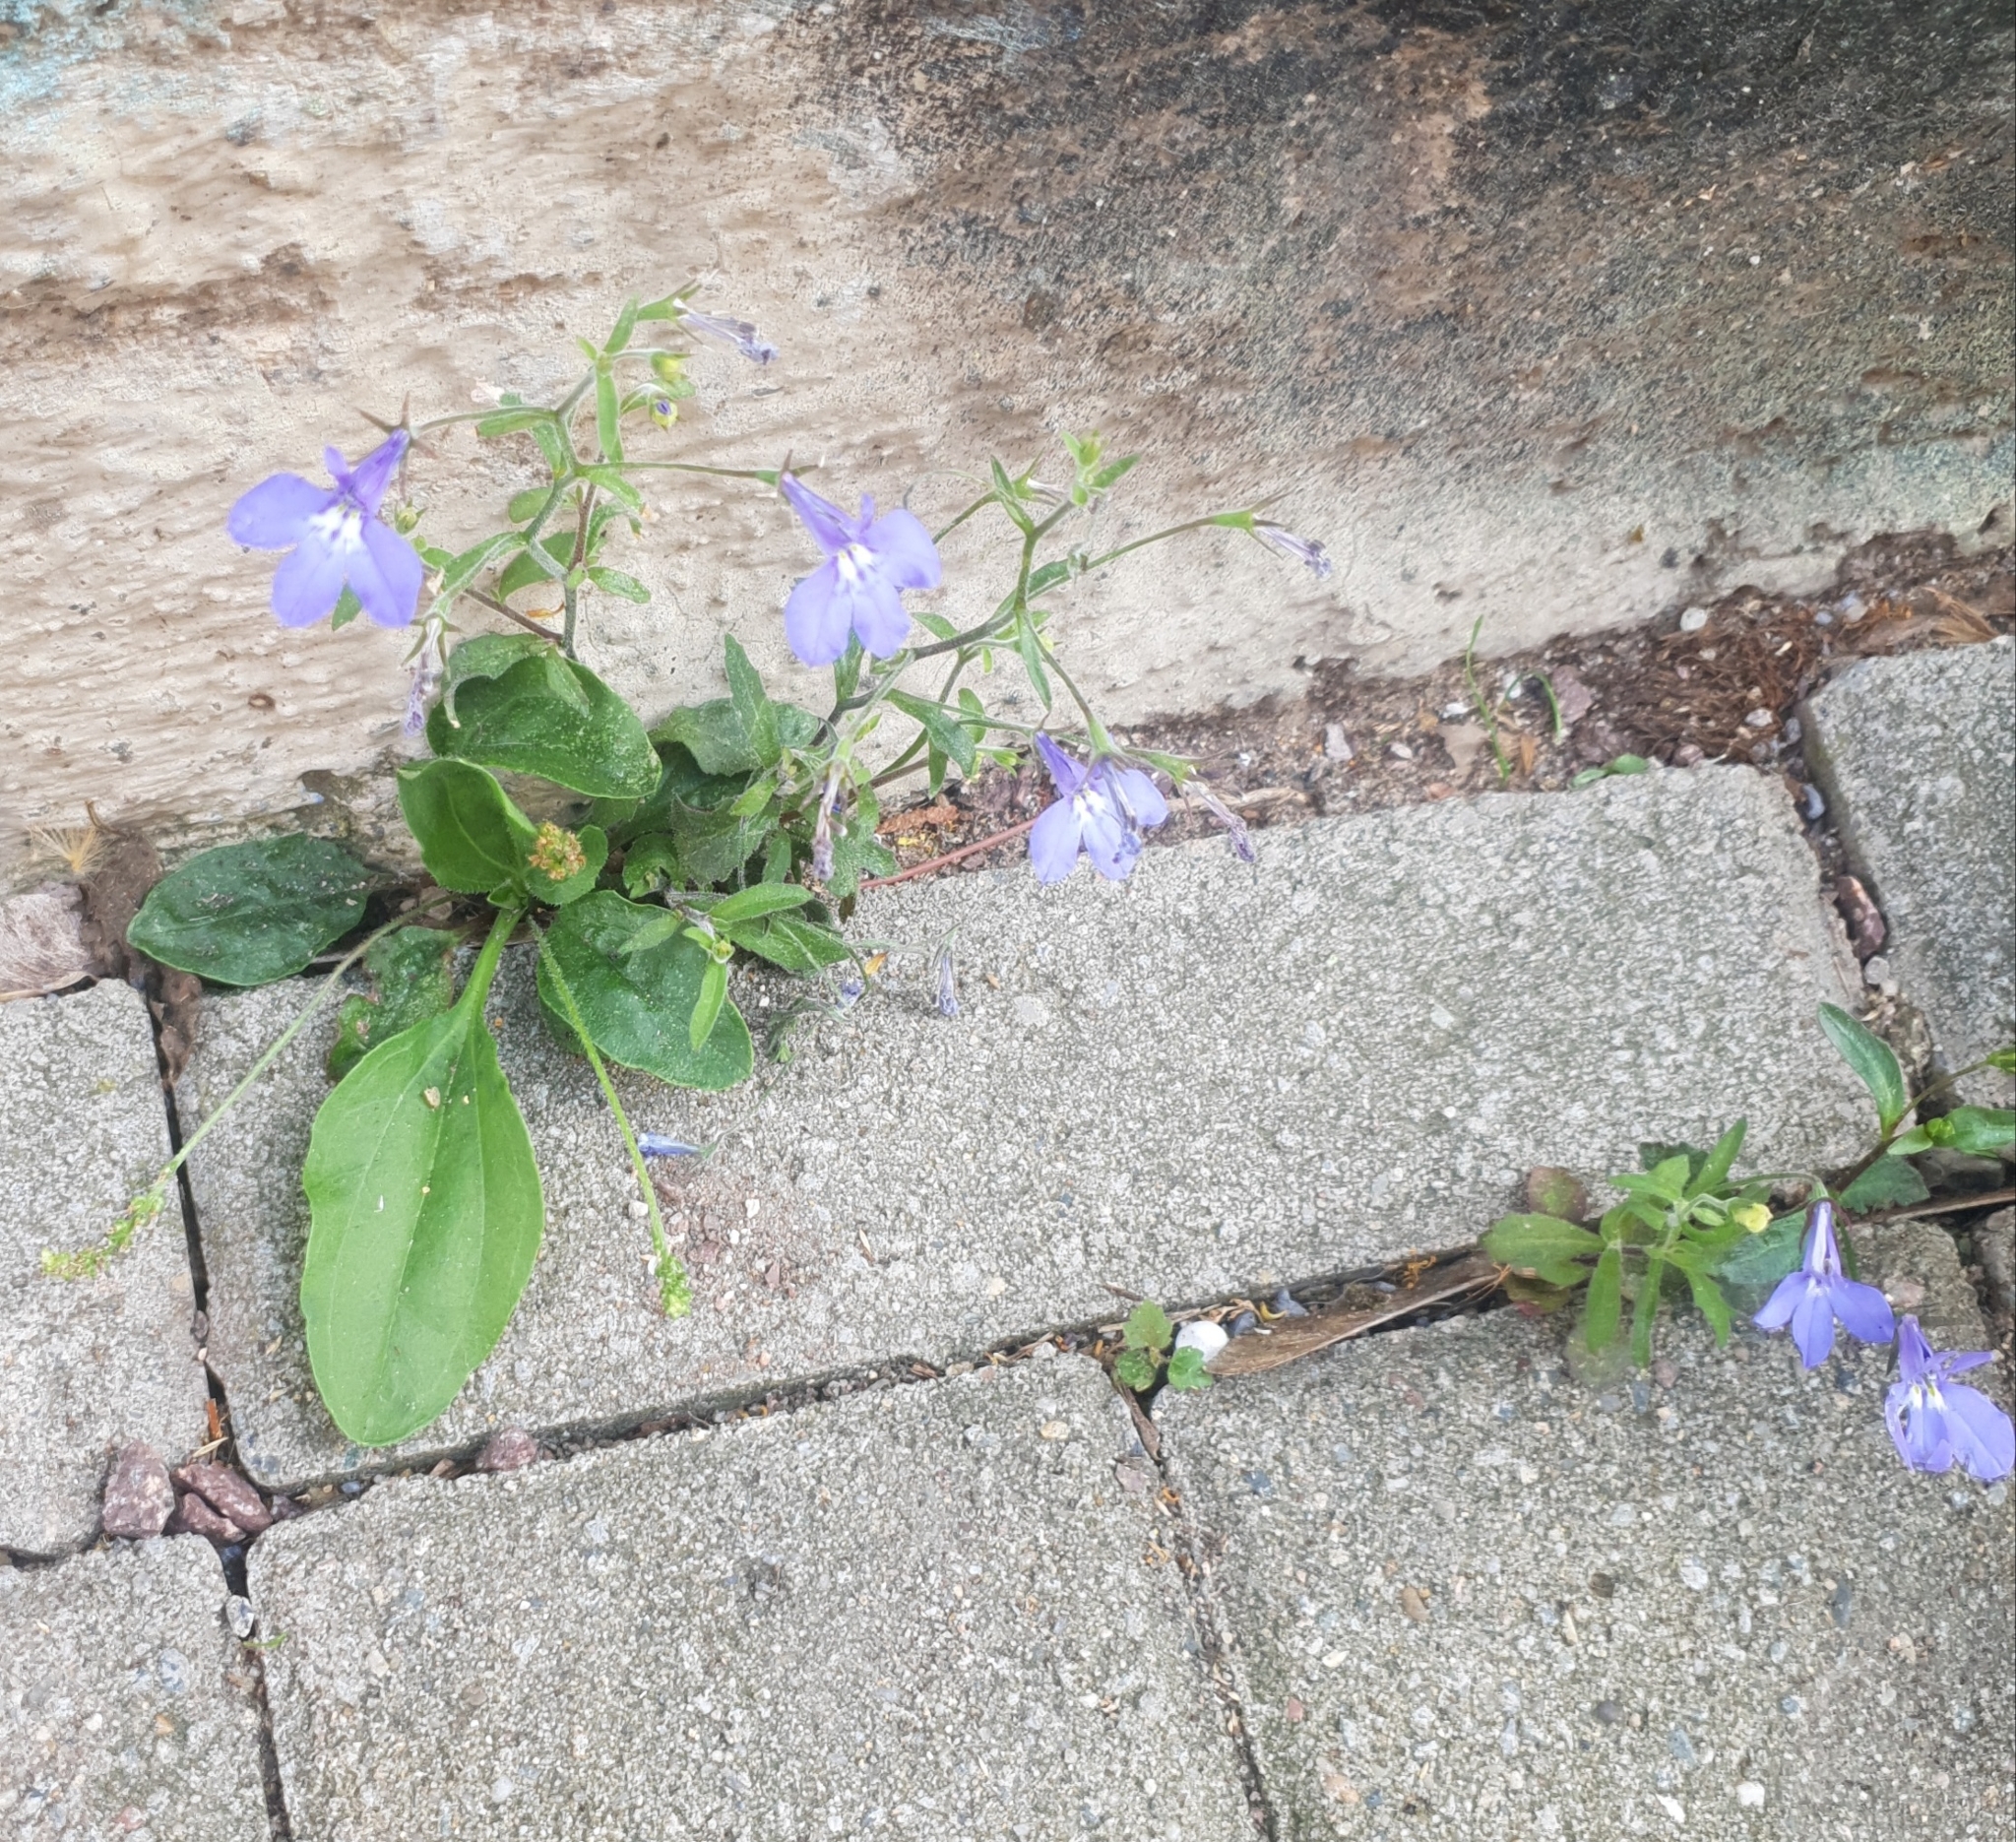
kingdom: Plantae
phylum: Tracheophyta
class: Magnoliopsida
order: Asterales
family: Campanulaceae
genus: Lobelia
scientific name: Lobelia erinus
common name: Edging lobelia
